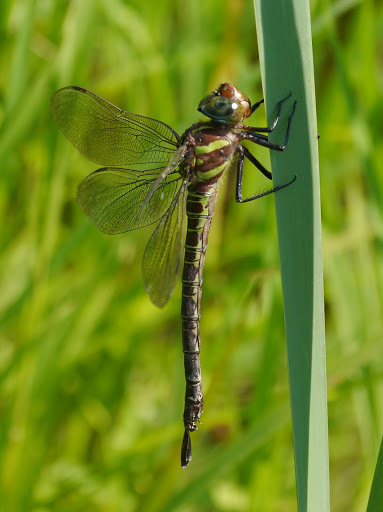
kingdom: Animalia
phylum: Arthropoda
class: Insecta
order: Odonata
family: Aeshnidae
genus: Epiaeschna
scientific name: Epiaeschna heros
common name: Swamp darner
